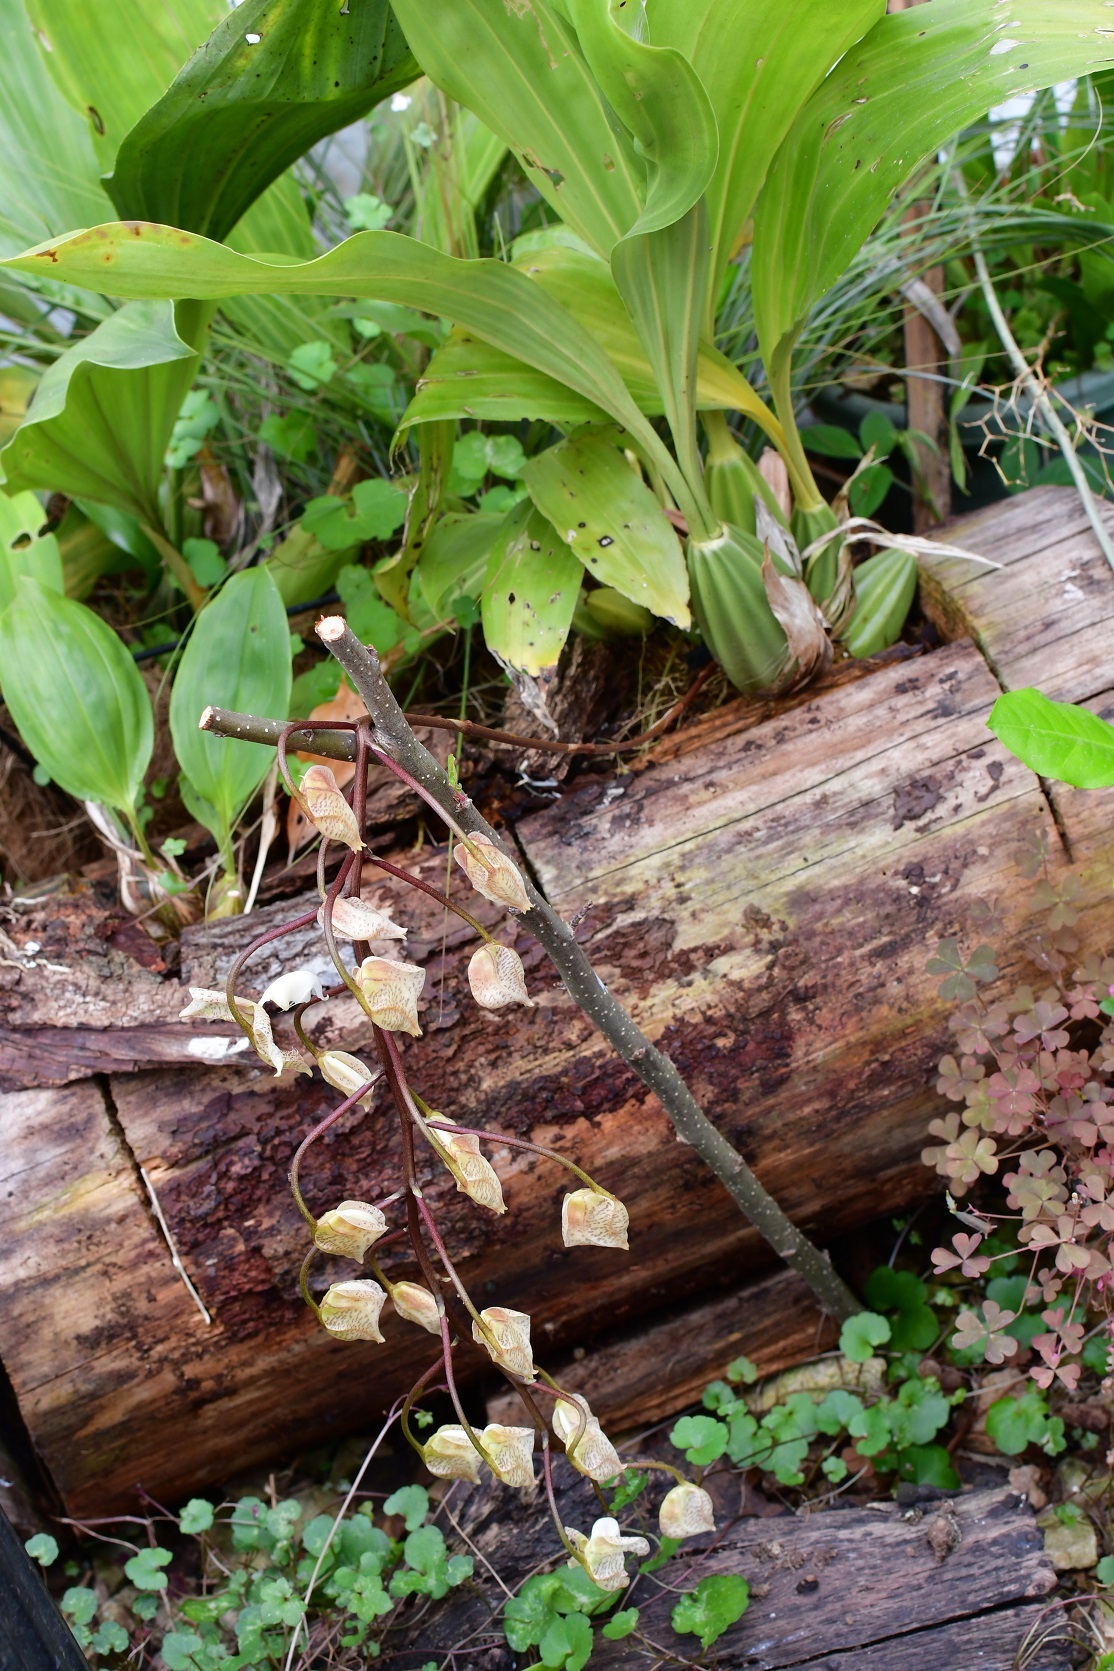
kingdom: Plantae
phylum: Tracheophyta
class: Liliopsida
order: Asparagales
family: Orchidaceae
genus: Gongora
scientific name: Gongora truncata
